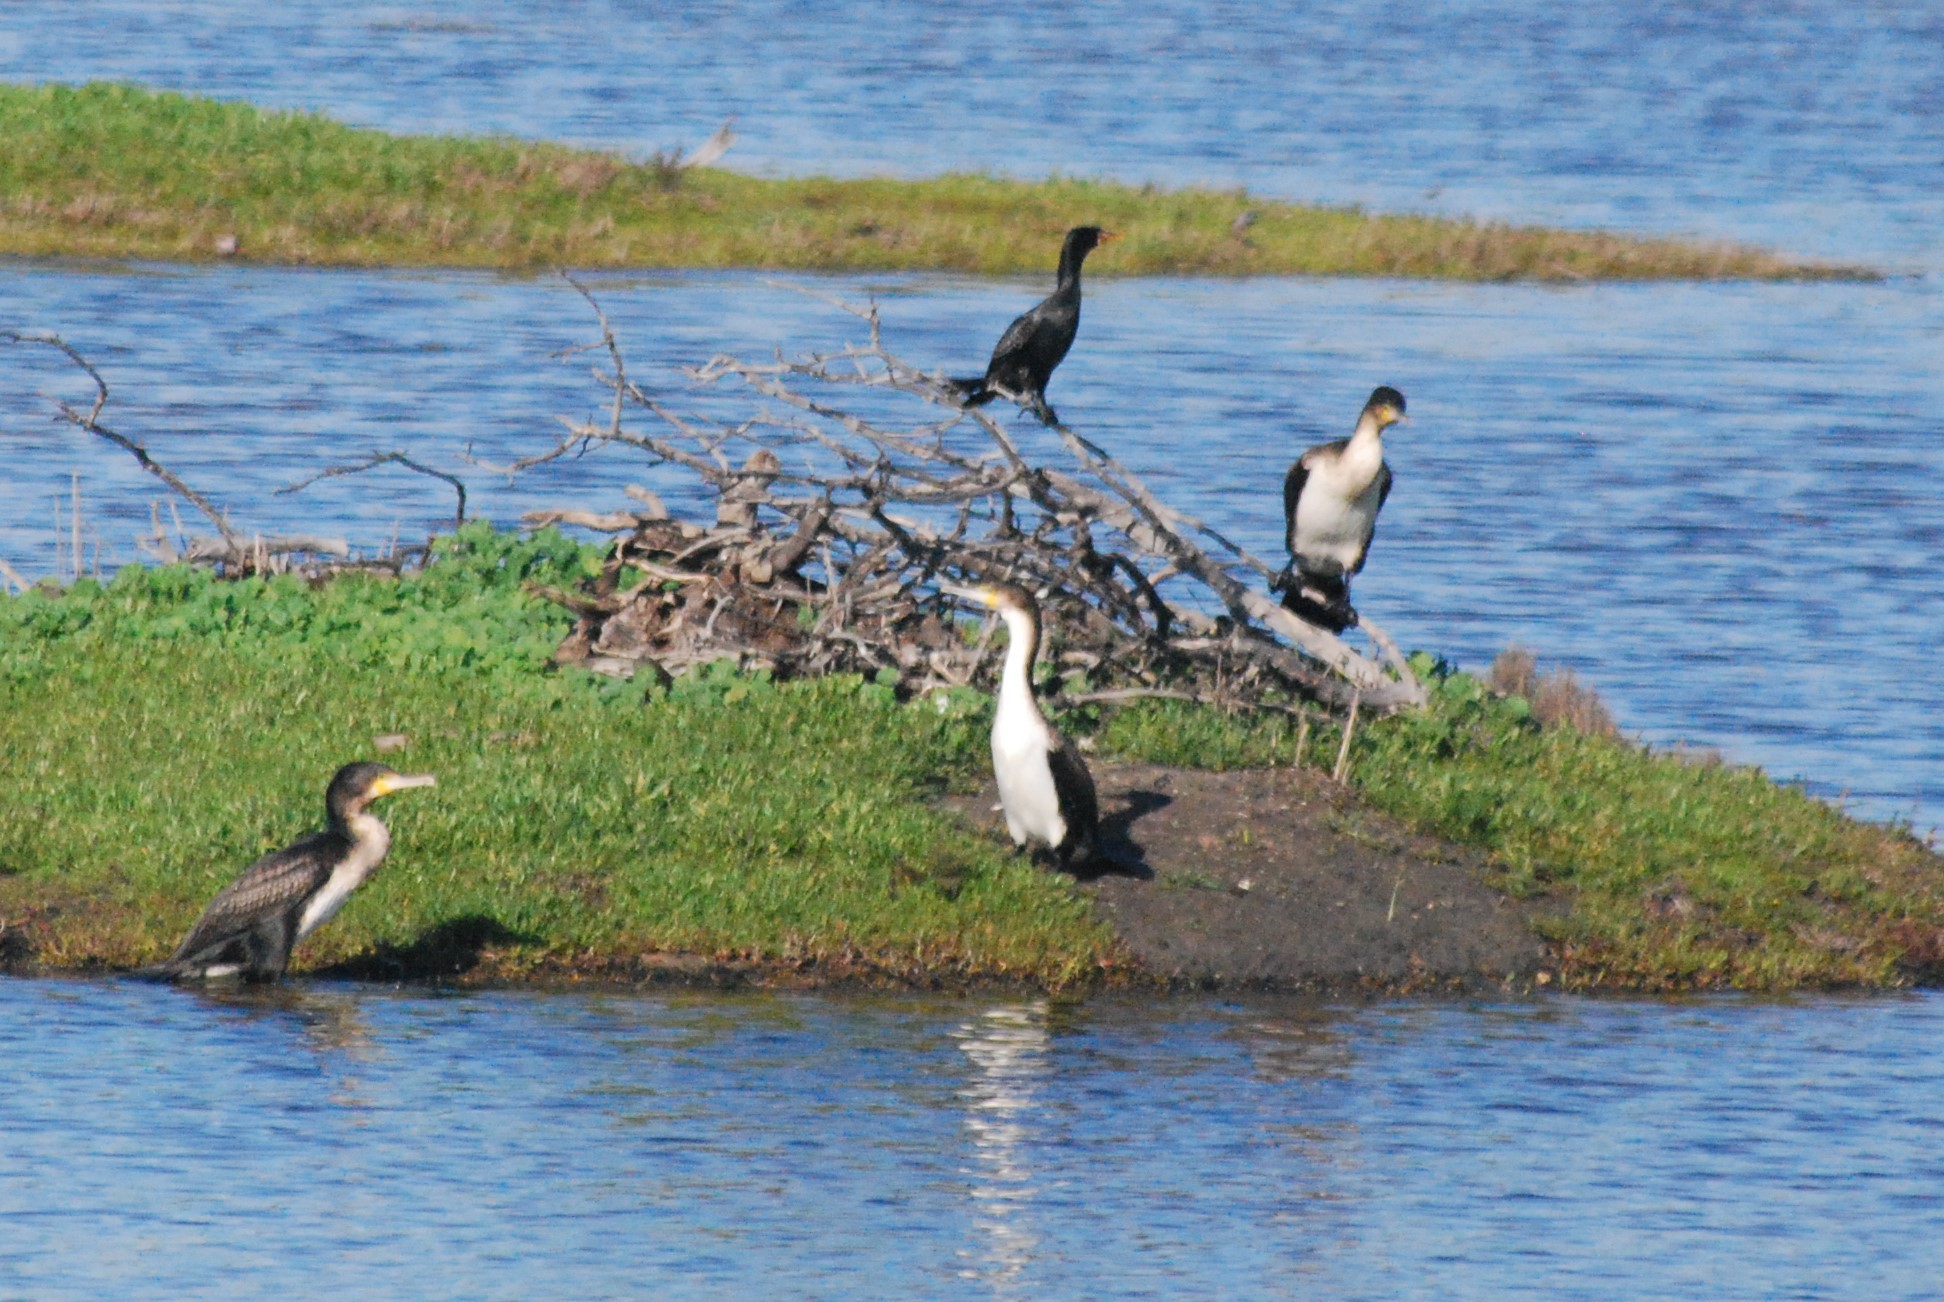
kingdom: Animalia
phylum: Chordata
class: Aves
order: Suliformes
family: Phalacrocoracidae
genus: Phalacrocorax
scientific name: Phalacrocorax carbo
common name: Great cormorant
